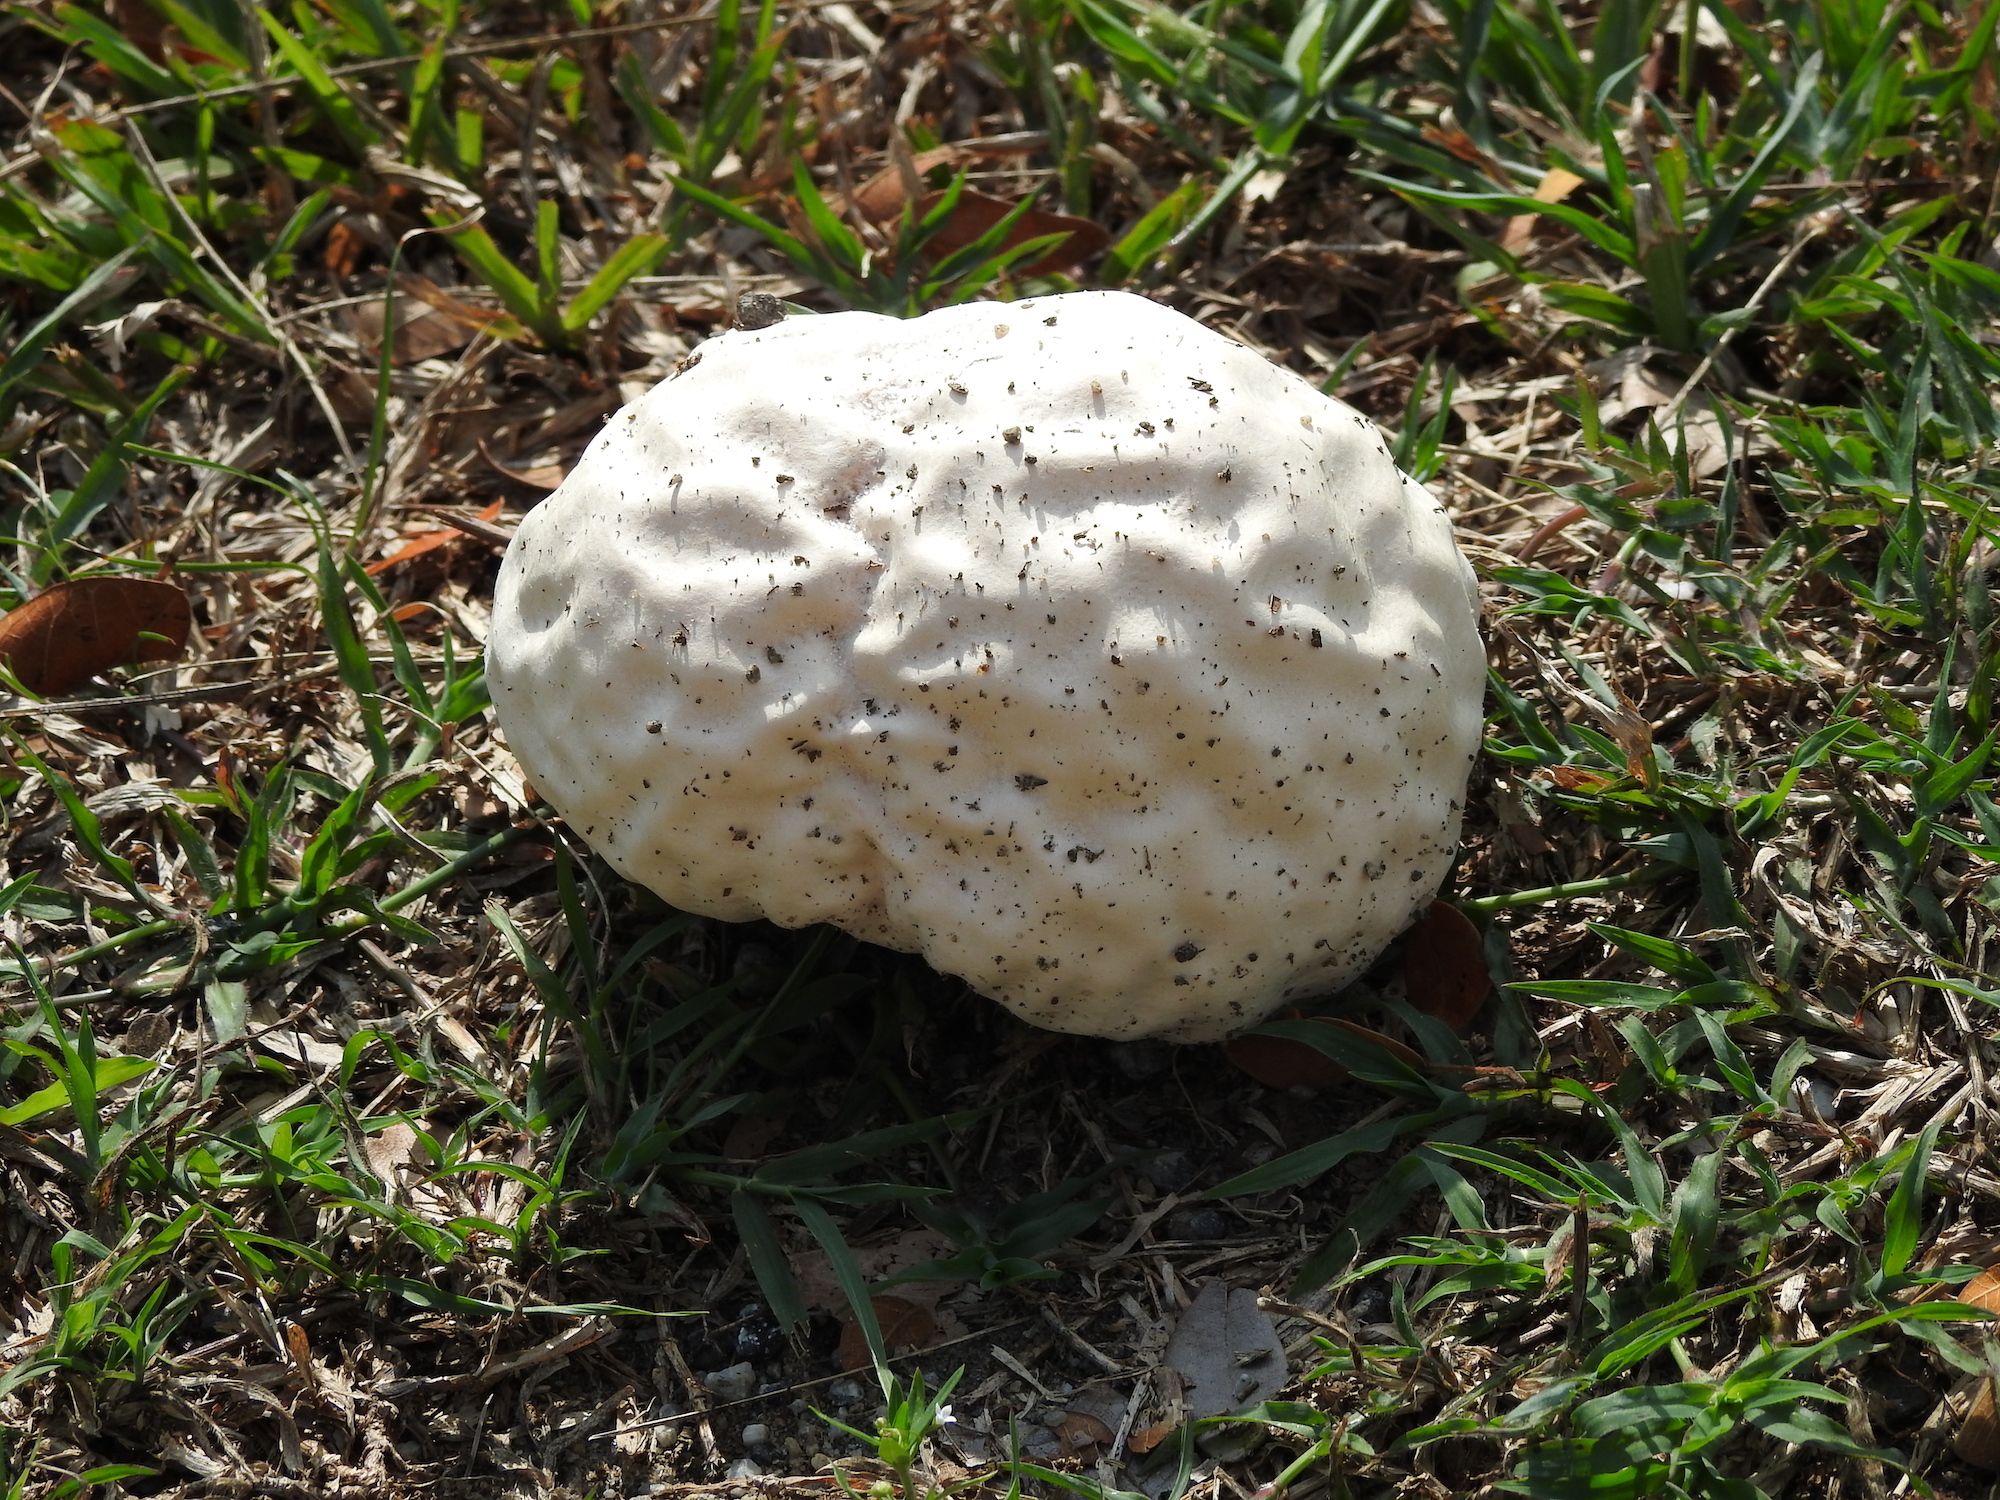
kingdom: Fungi
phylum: Basidiomycota
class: Agaricomycetes
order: Agaricales
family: Lycoperdaceae
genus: Calvatia
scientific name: Calvatia craniiformis
